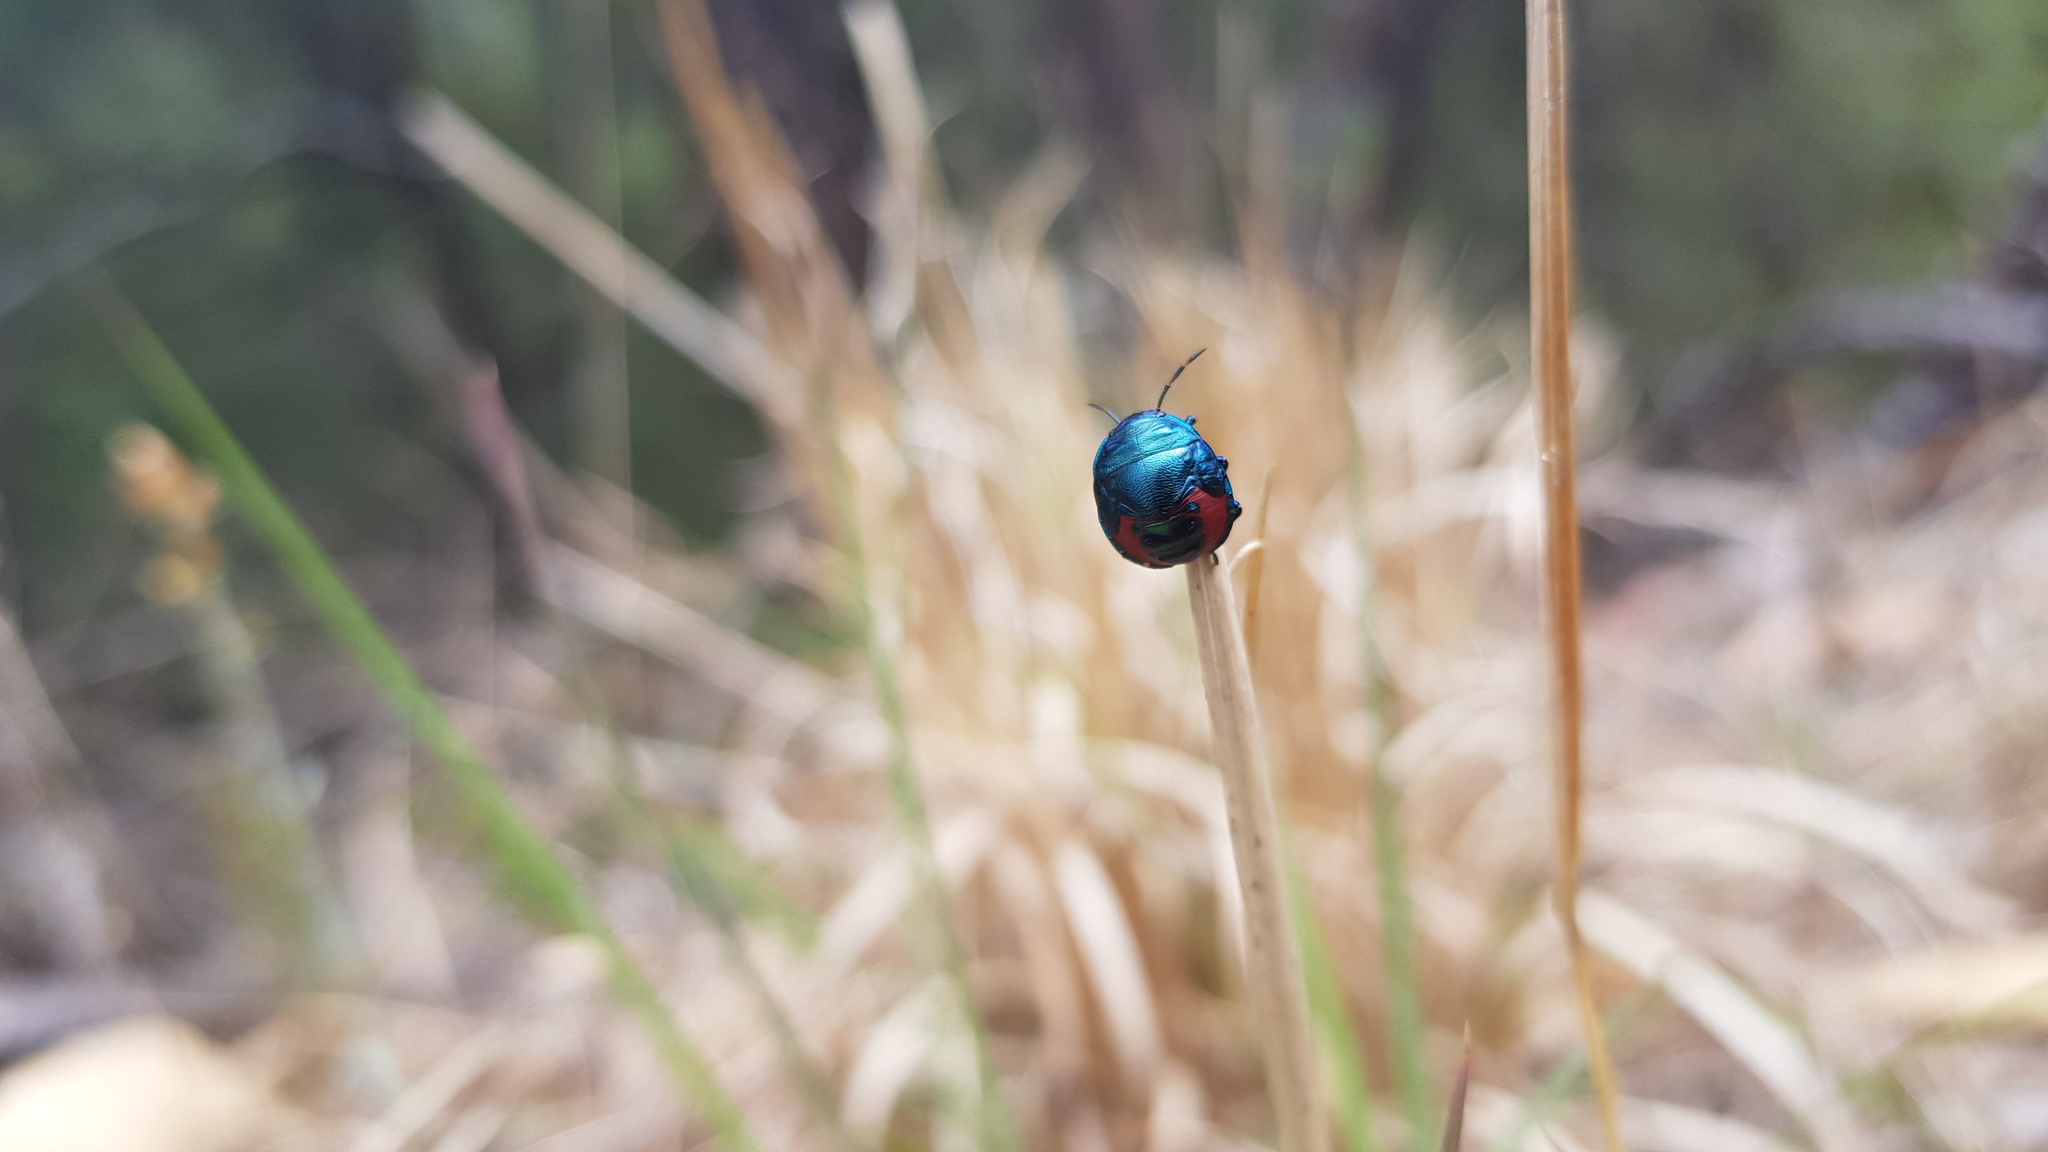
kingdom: Animalia
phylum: Arthropoda
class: Insecta
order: Hemiptera
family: Scutelleridae
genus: Choerocoris
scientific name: Choerocoris paganus
